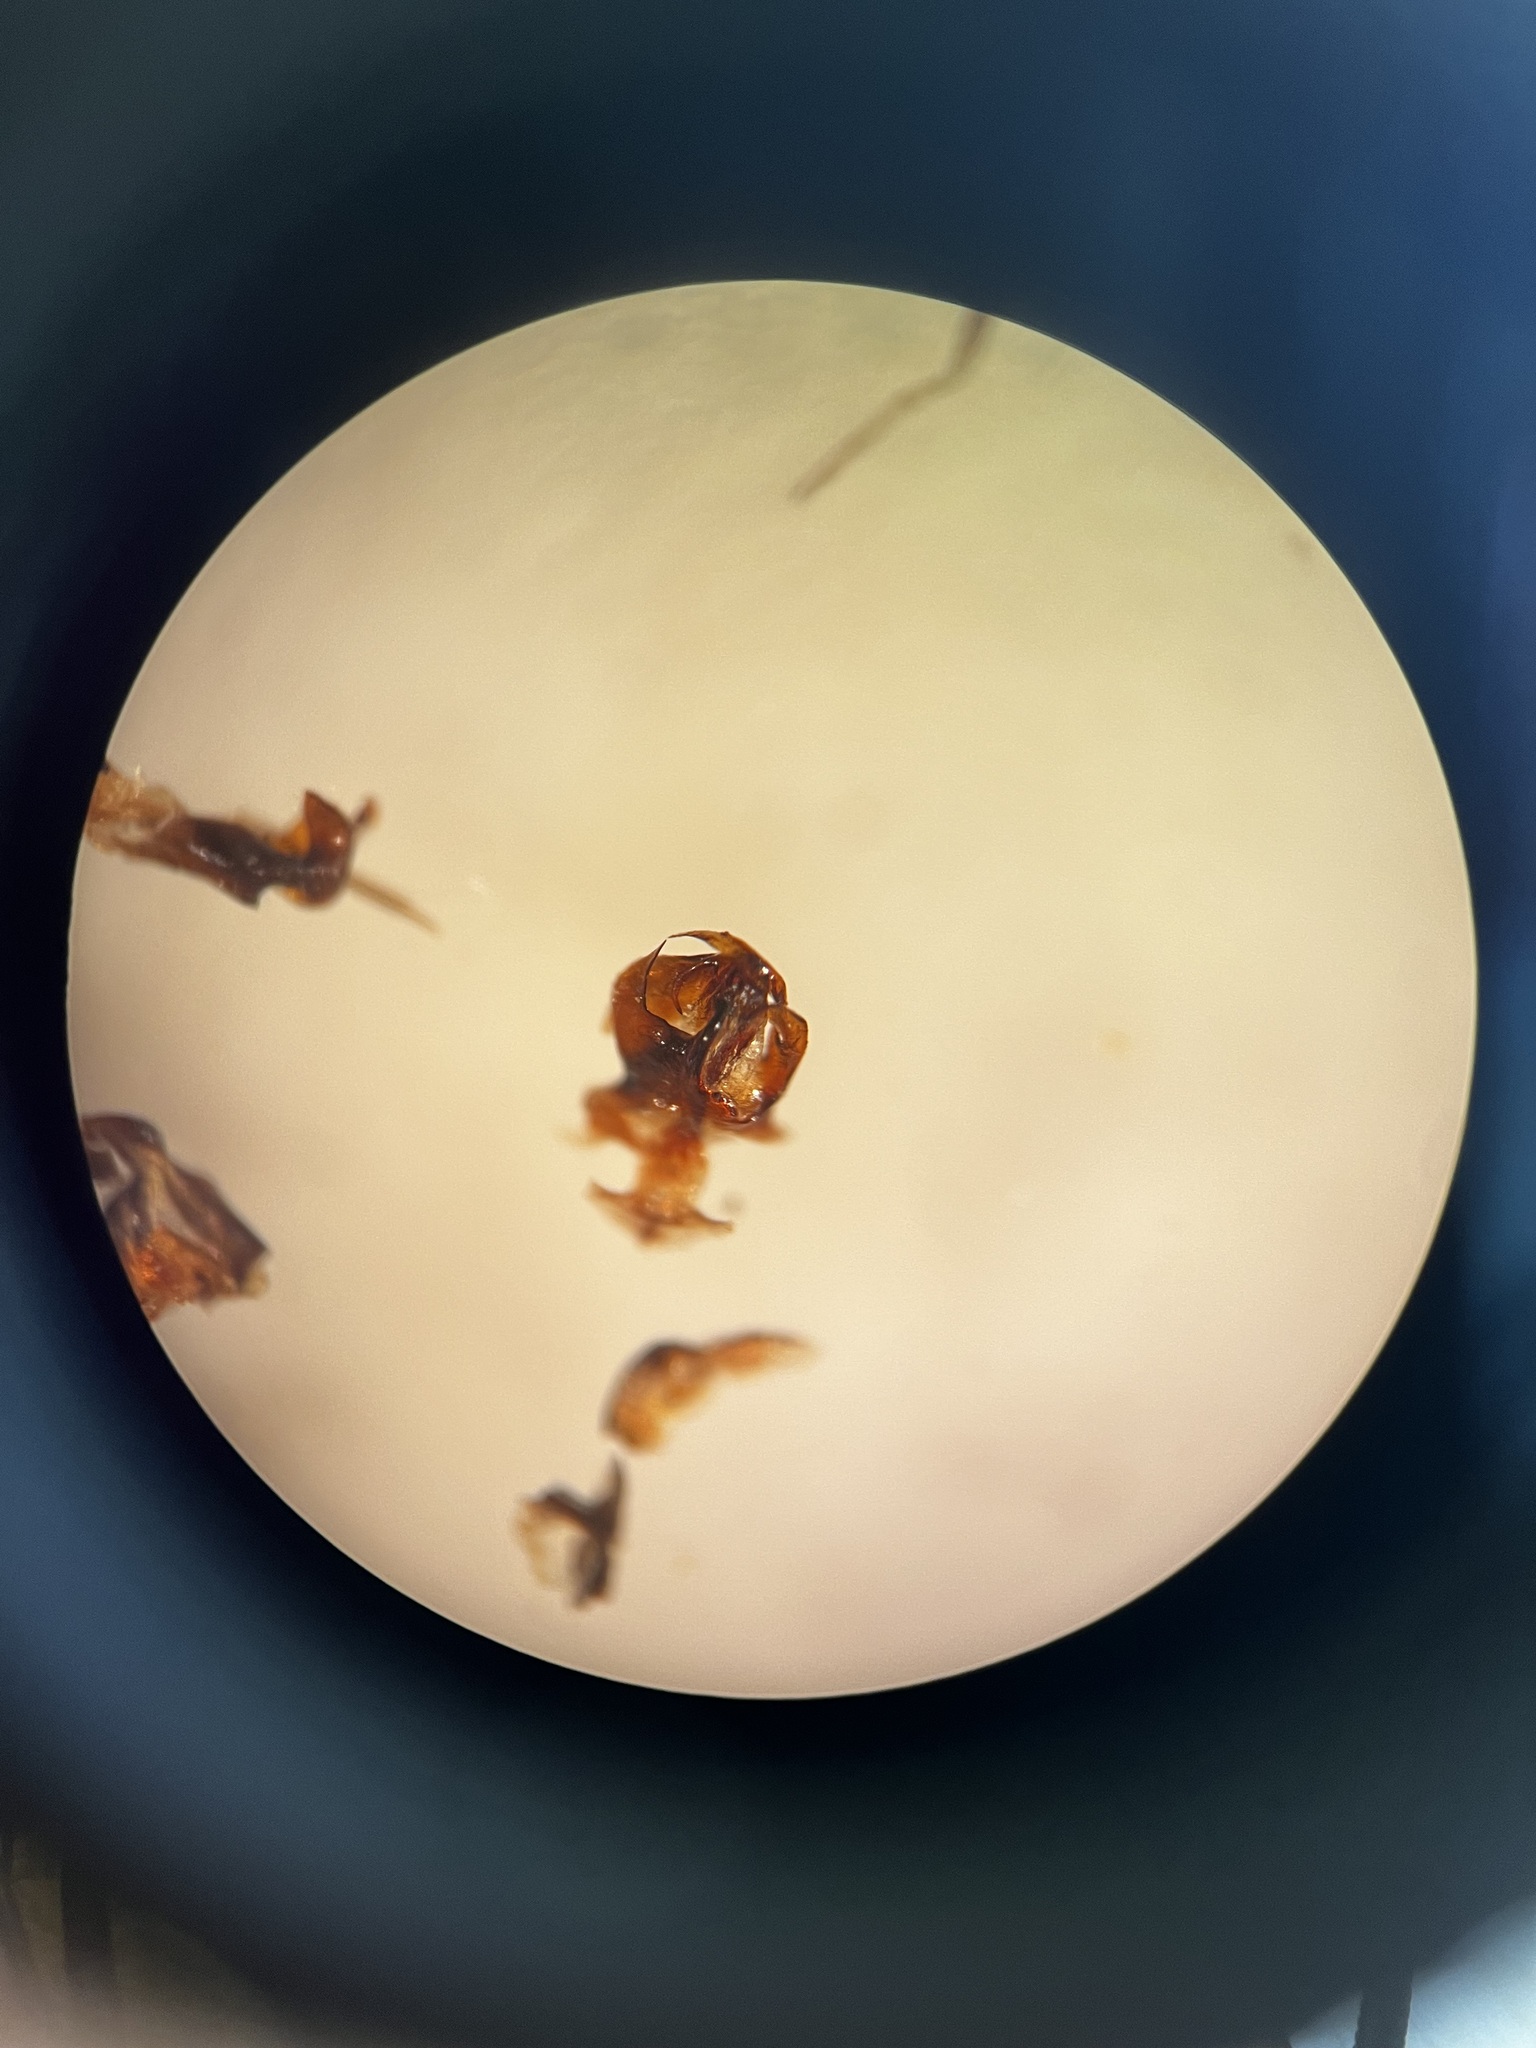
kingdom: Animalia
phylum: Arthropoda
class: Insecta
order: Hemiptera
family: Cixiidae
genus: Reptalus
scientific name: Reptalus panzeri
